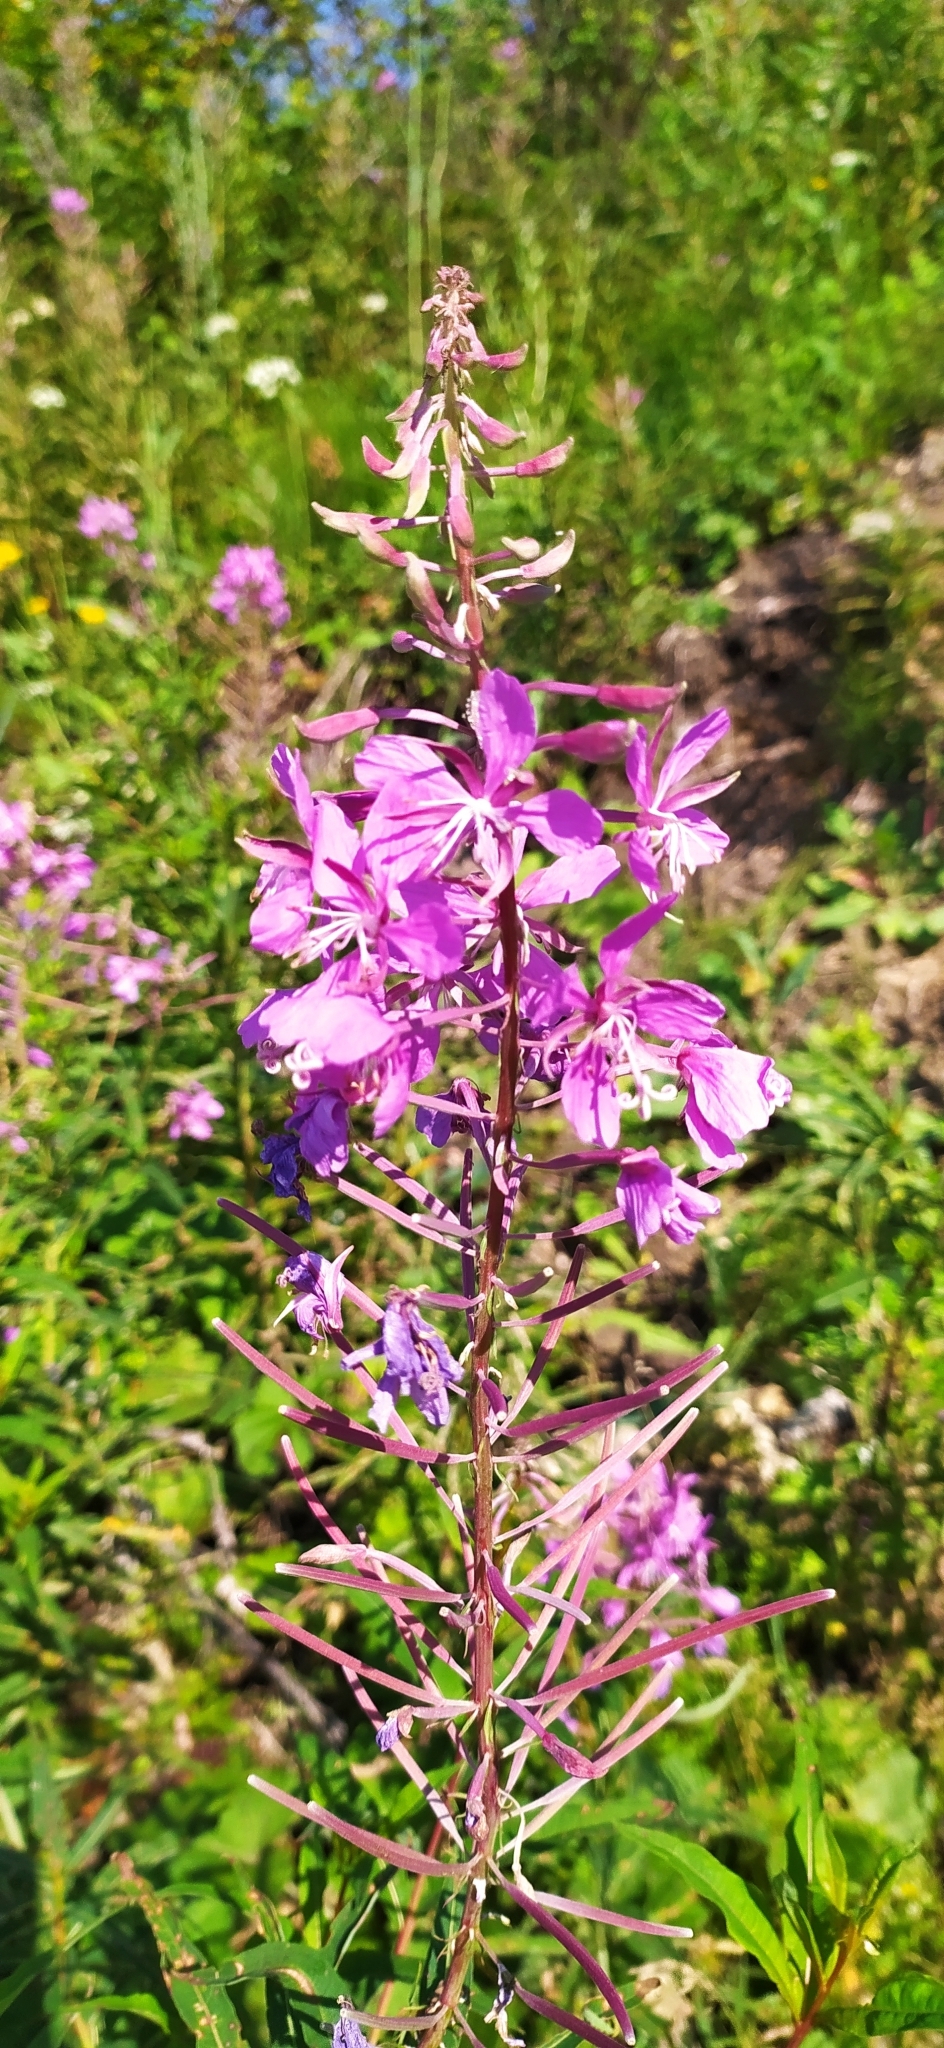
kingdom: Plantae
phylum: Tracheophyta
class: Magnoliopsida
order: Myrtales
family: Onagraceae
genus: Chamaenerion
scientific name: Chamaenerion angustifolium
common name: Fireweed
